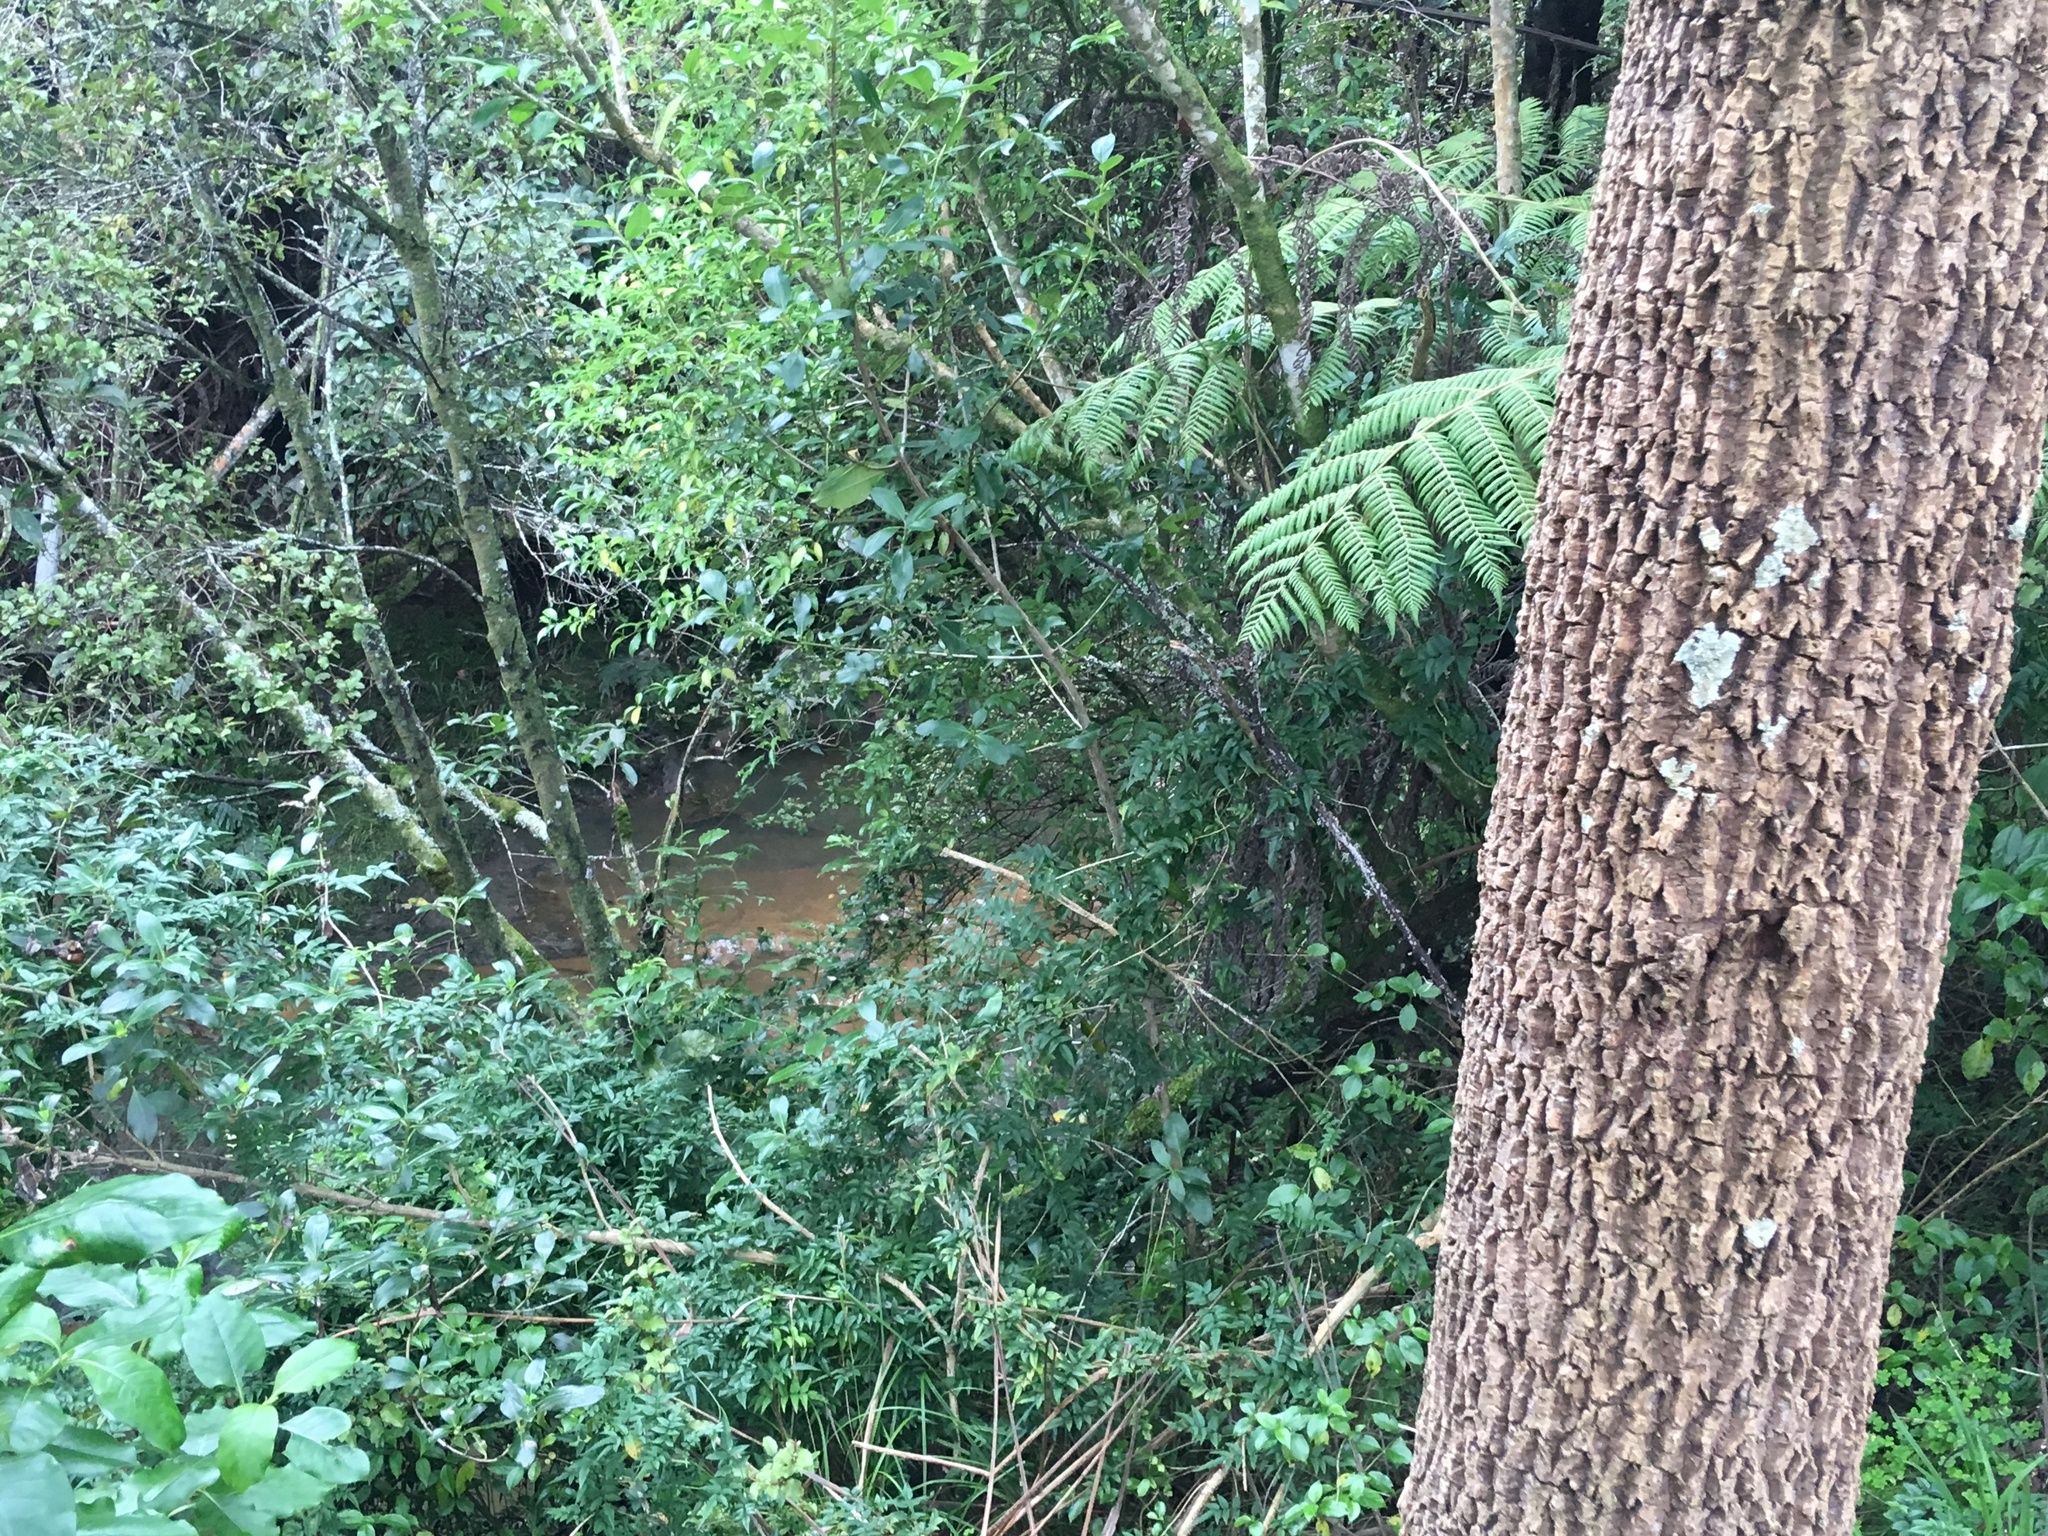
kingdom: Plantae
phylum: Tracheophyta
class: Magnoliopsida
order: Lamiales
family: Oleaceae
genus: Jasminum
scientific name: Jasminum polyanthum
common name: Pink jasmine
